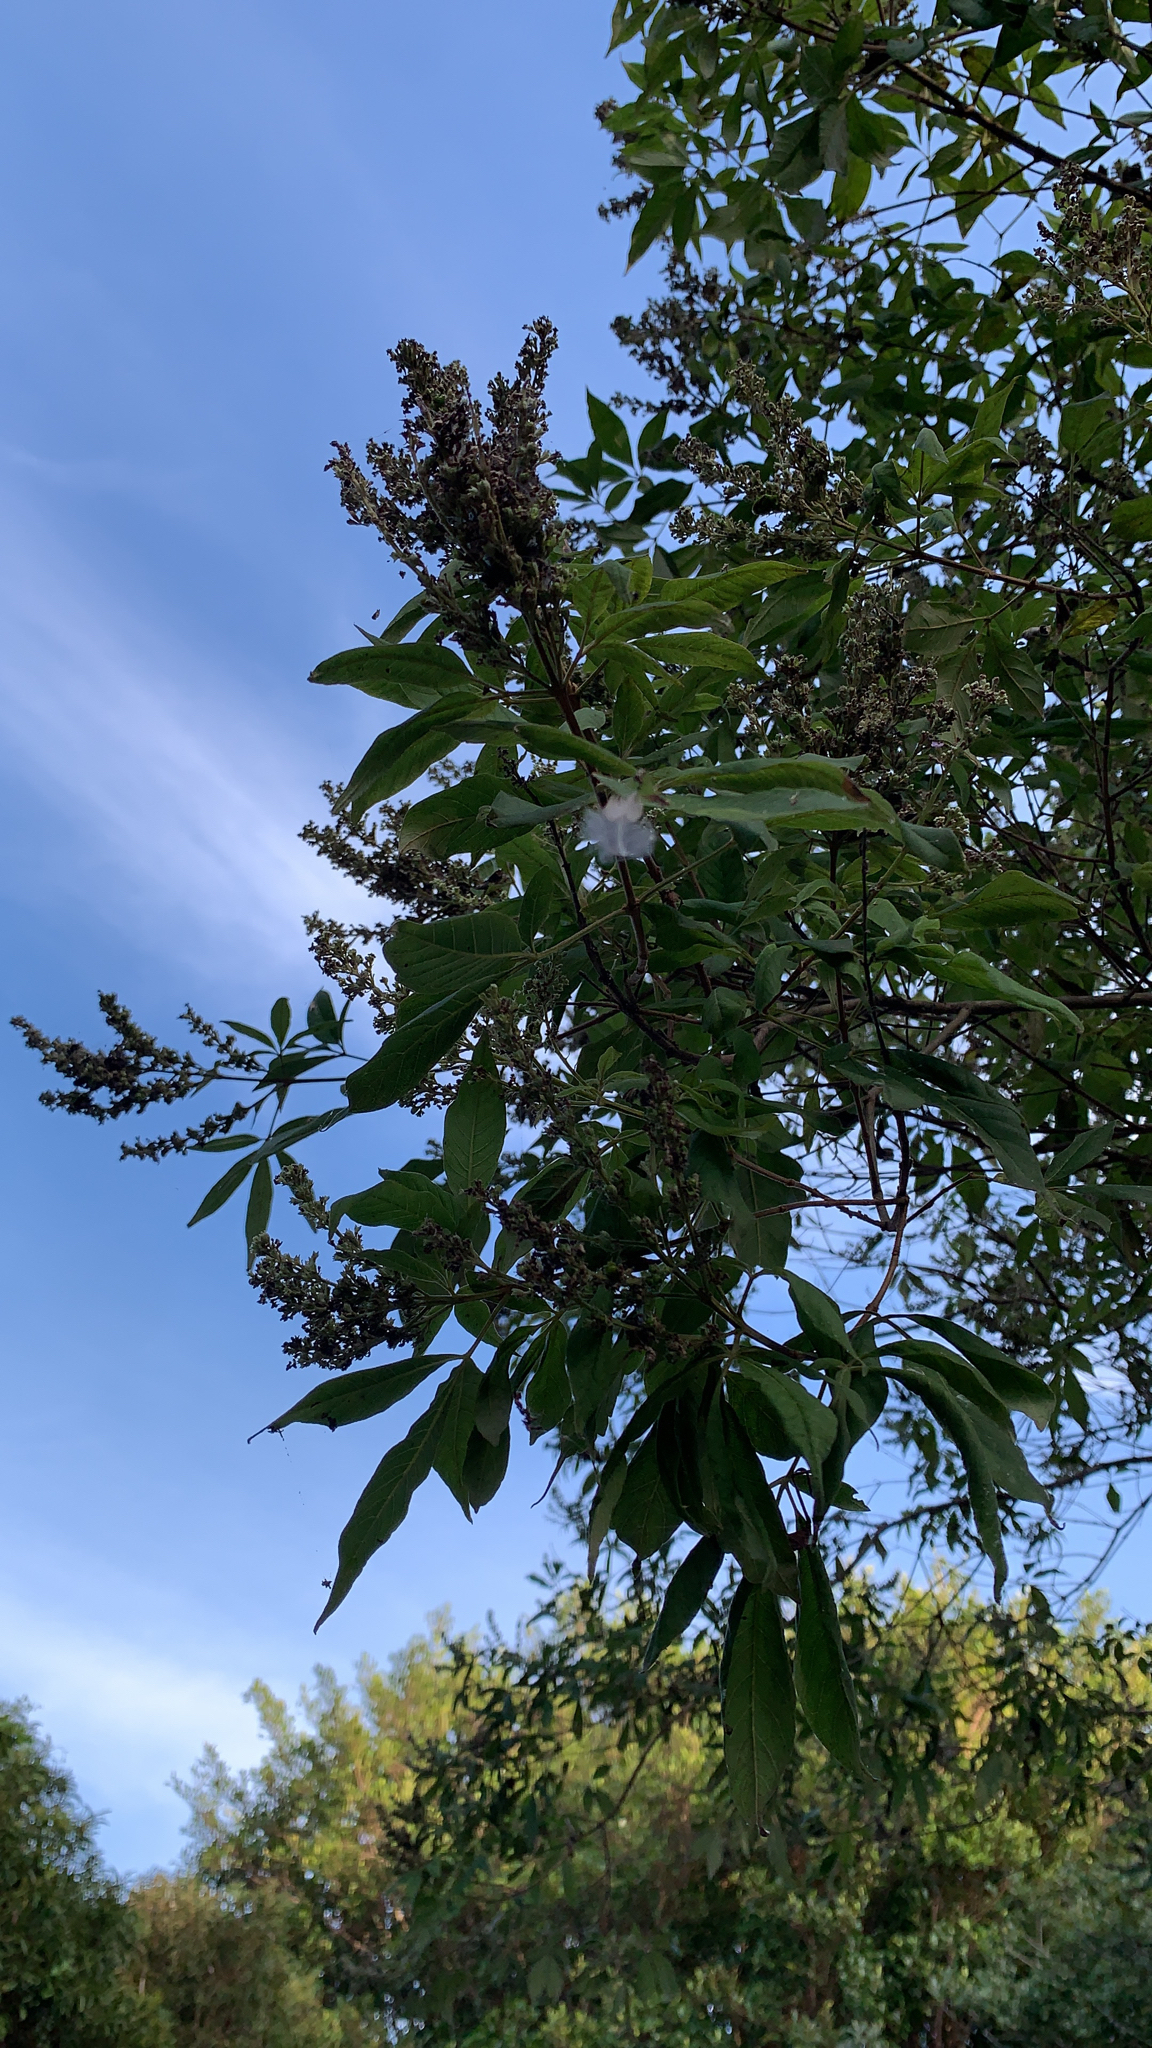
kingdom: Plantae
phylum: Tracheophyta
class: Magnoliopsida
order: Lamiales
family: Lamiaceae
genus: Vitex
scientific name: Vitex negundo
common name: Chinese chastetree
